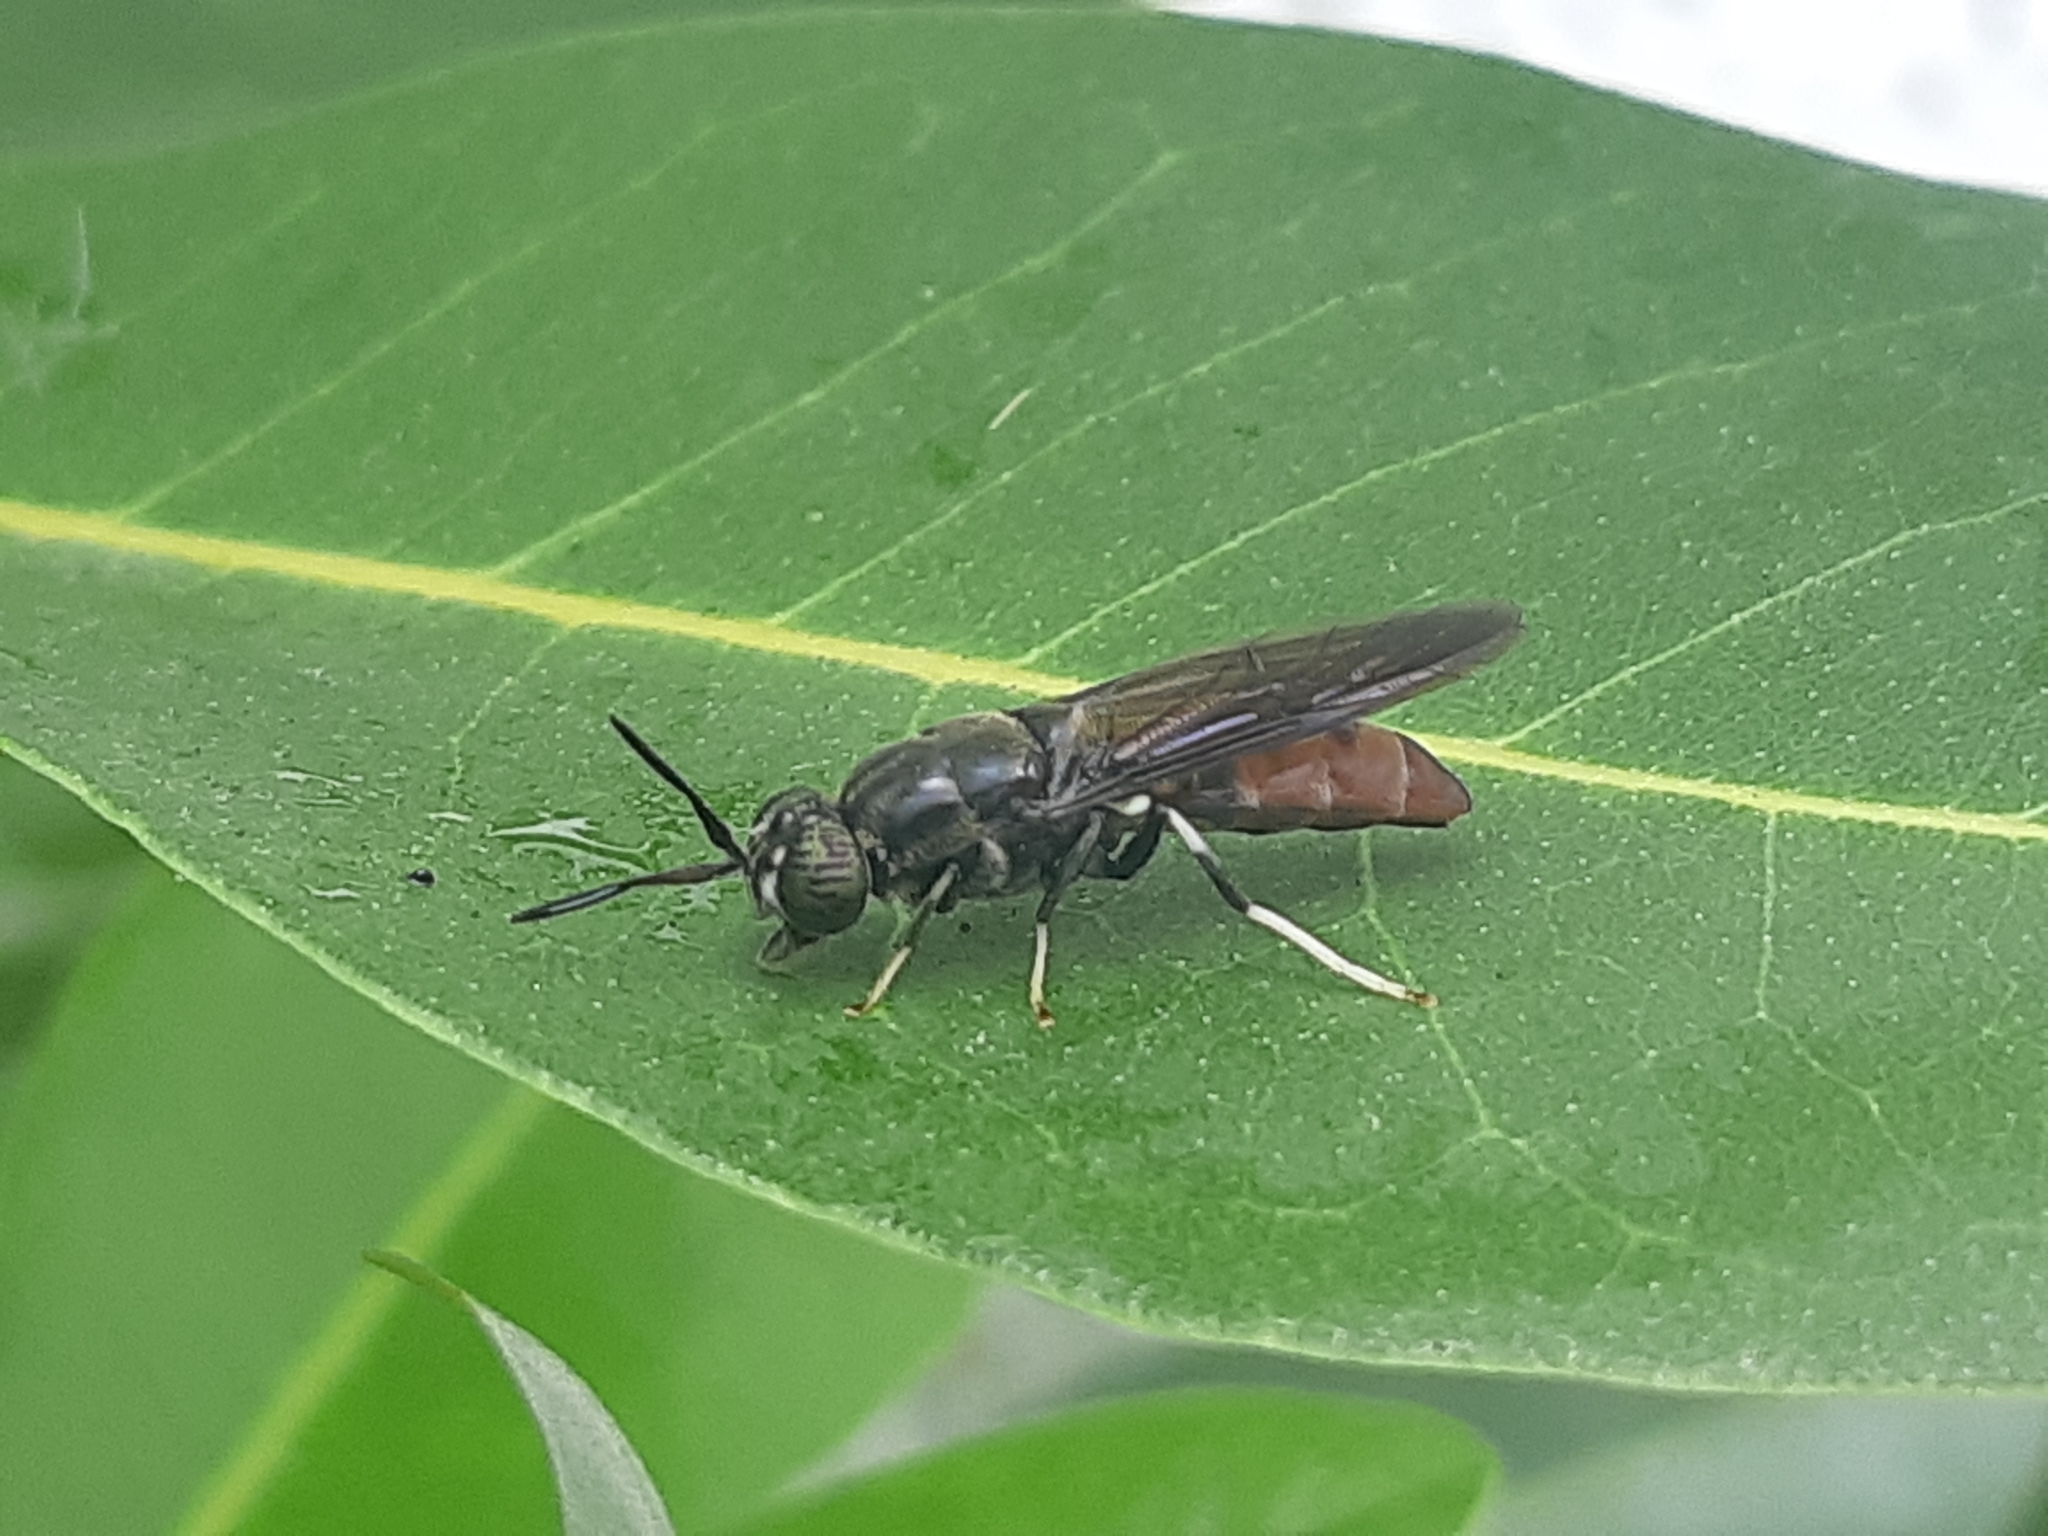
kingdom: Animalia
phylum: Arthropoda
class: Insecta
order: Diptera
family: Stratiomyidae
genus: Hermetia
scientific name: Hermetia illucens
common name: Black soldier fly
